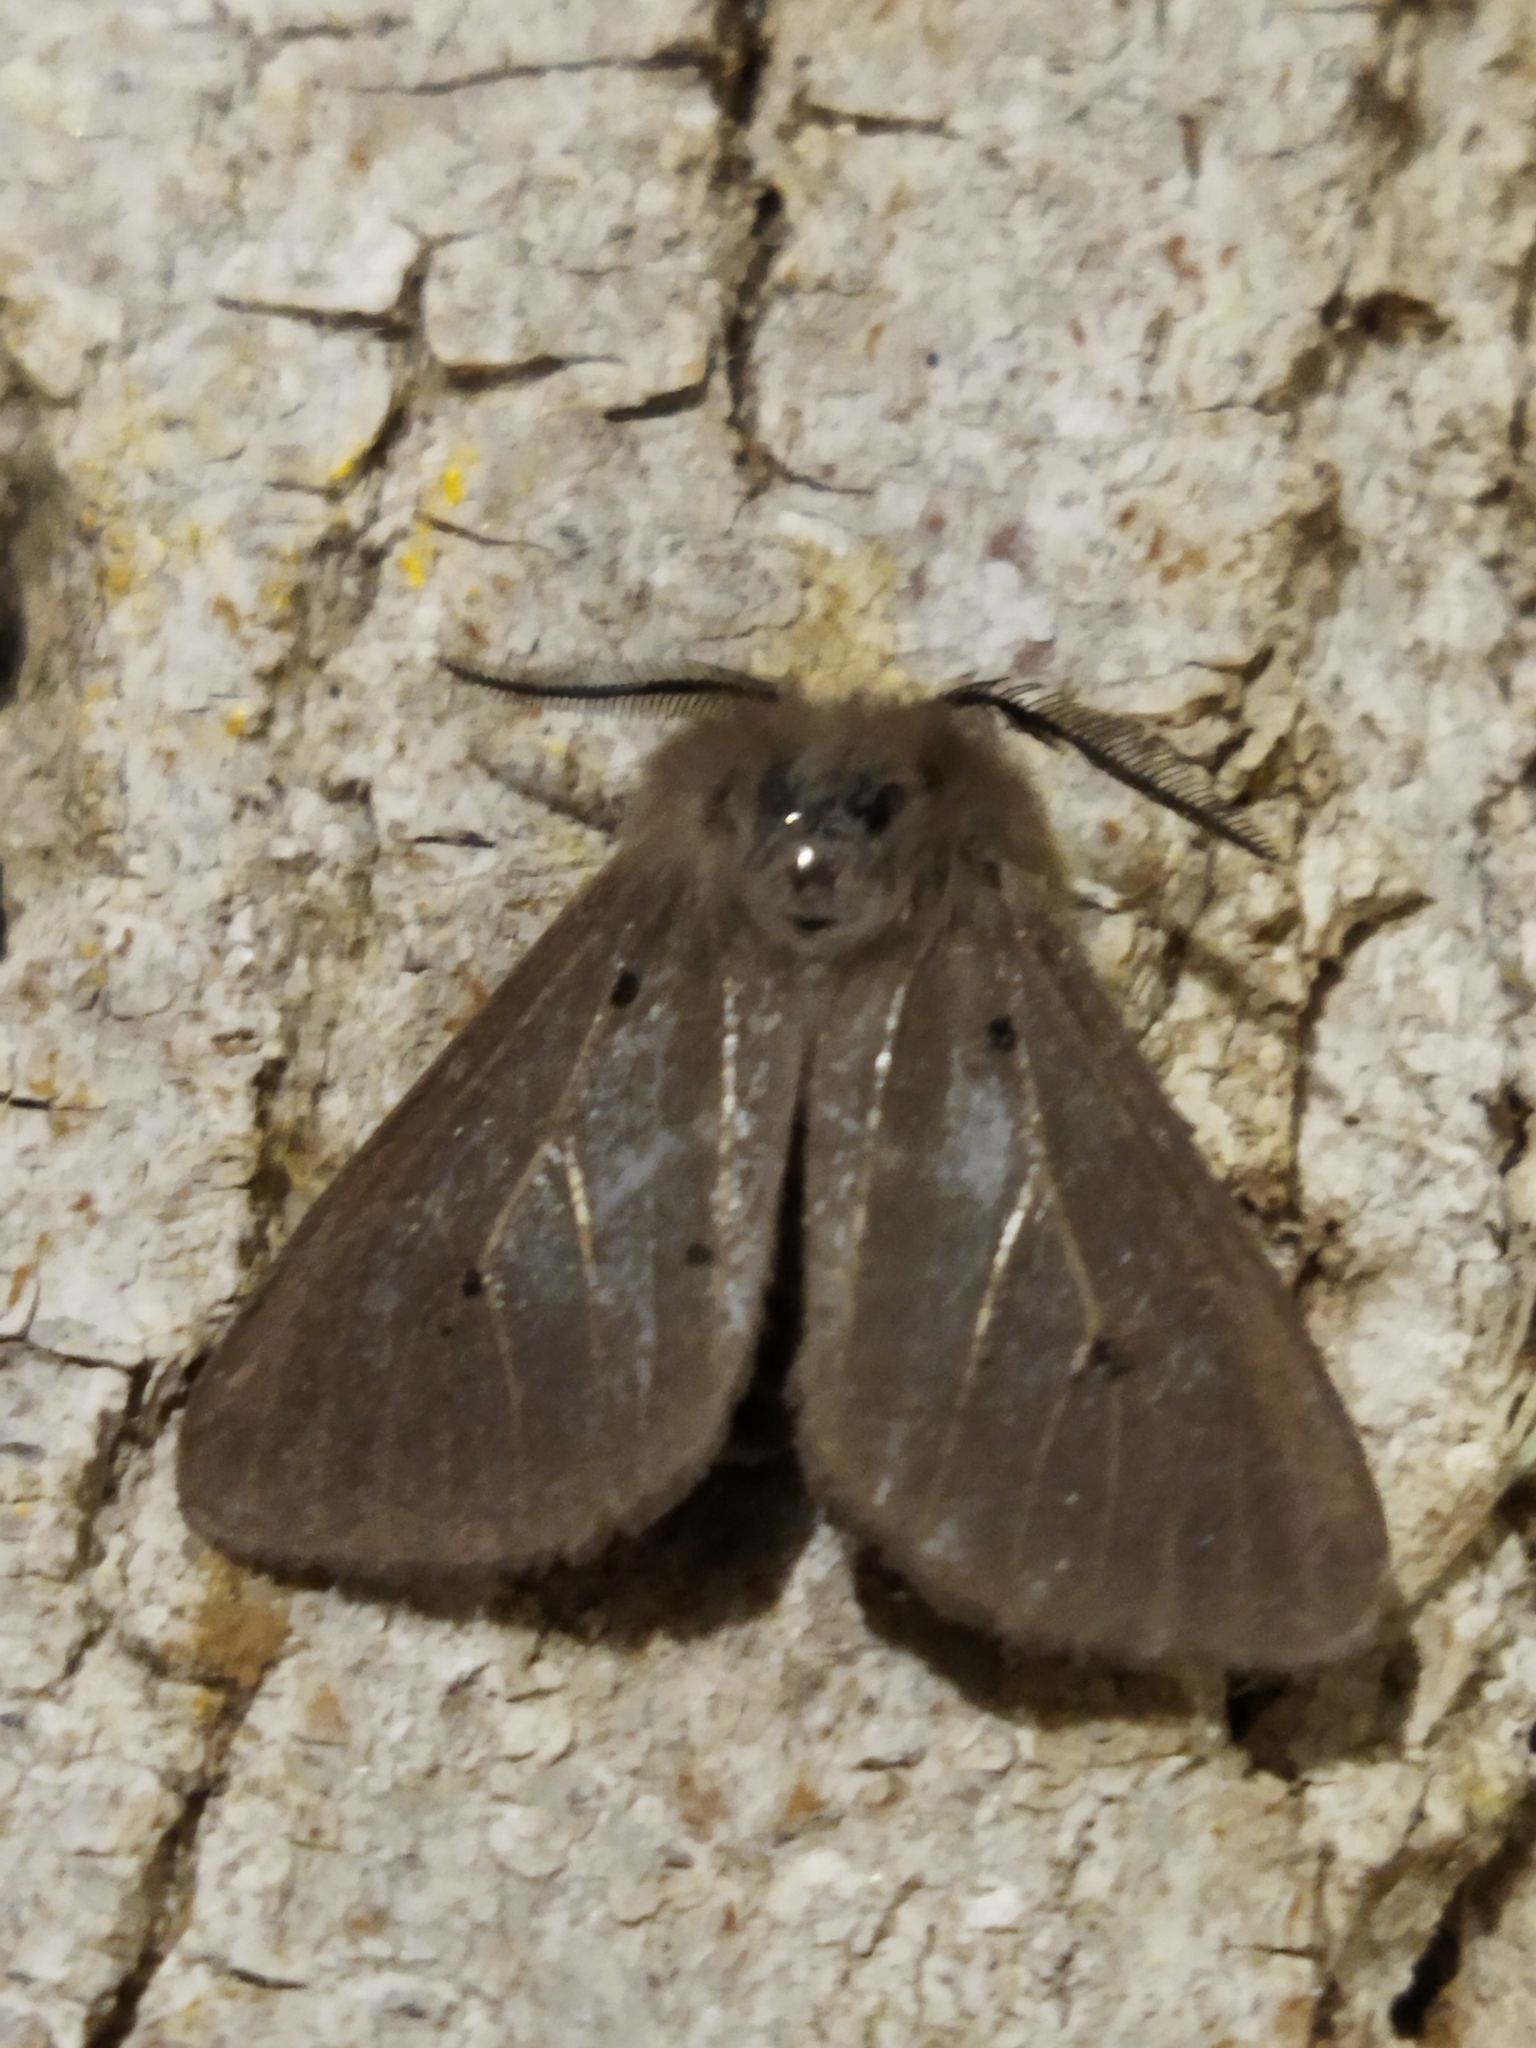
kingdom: Animalia
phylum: Arthropoda
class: Insecta
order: Lepidoptera
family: Erebidae
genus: Diaphora
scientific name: Diaphora mendica
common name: Muslin moth
